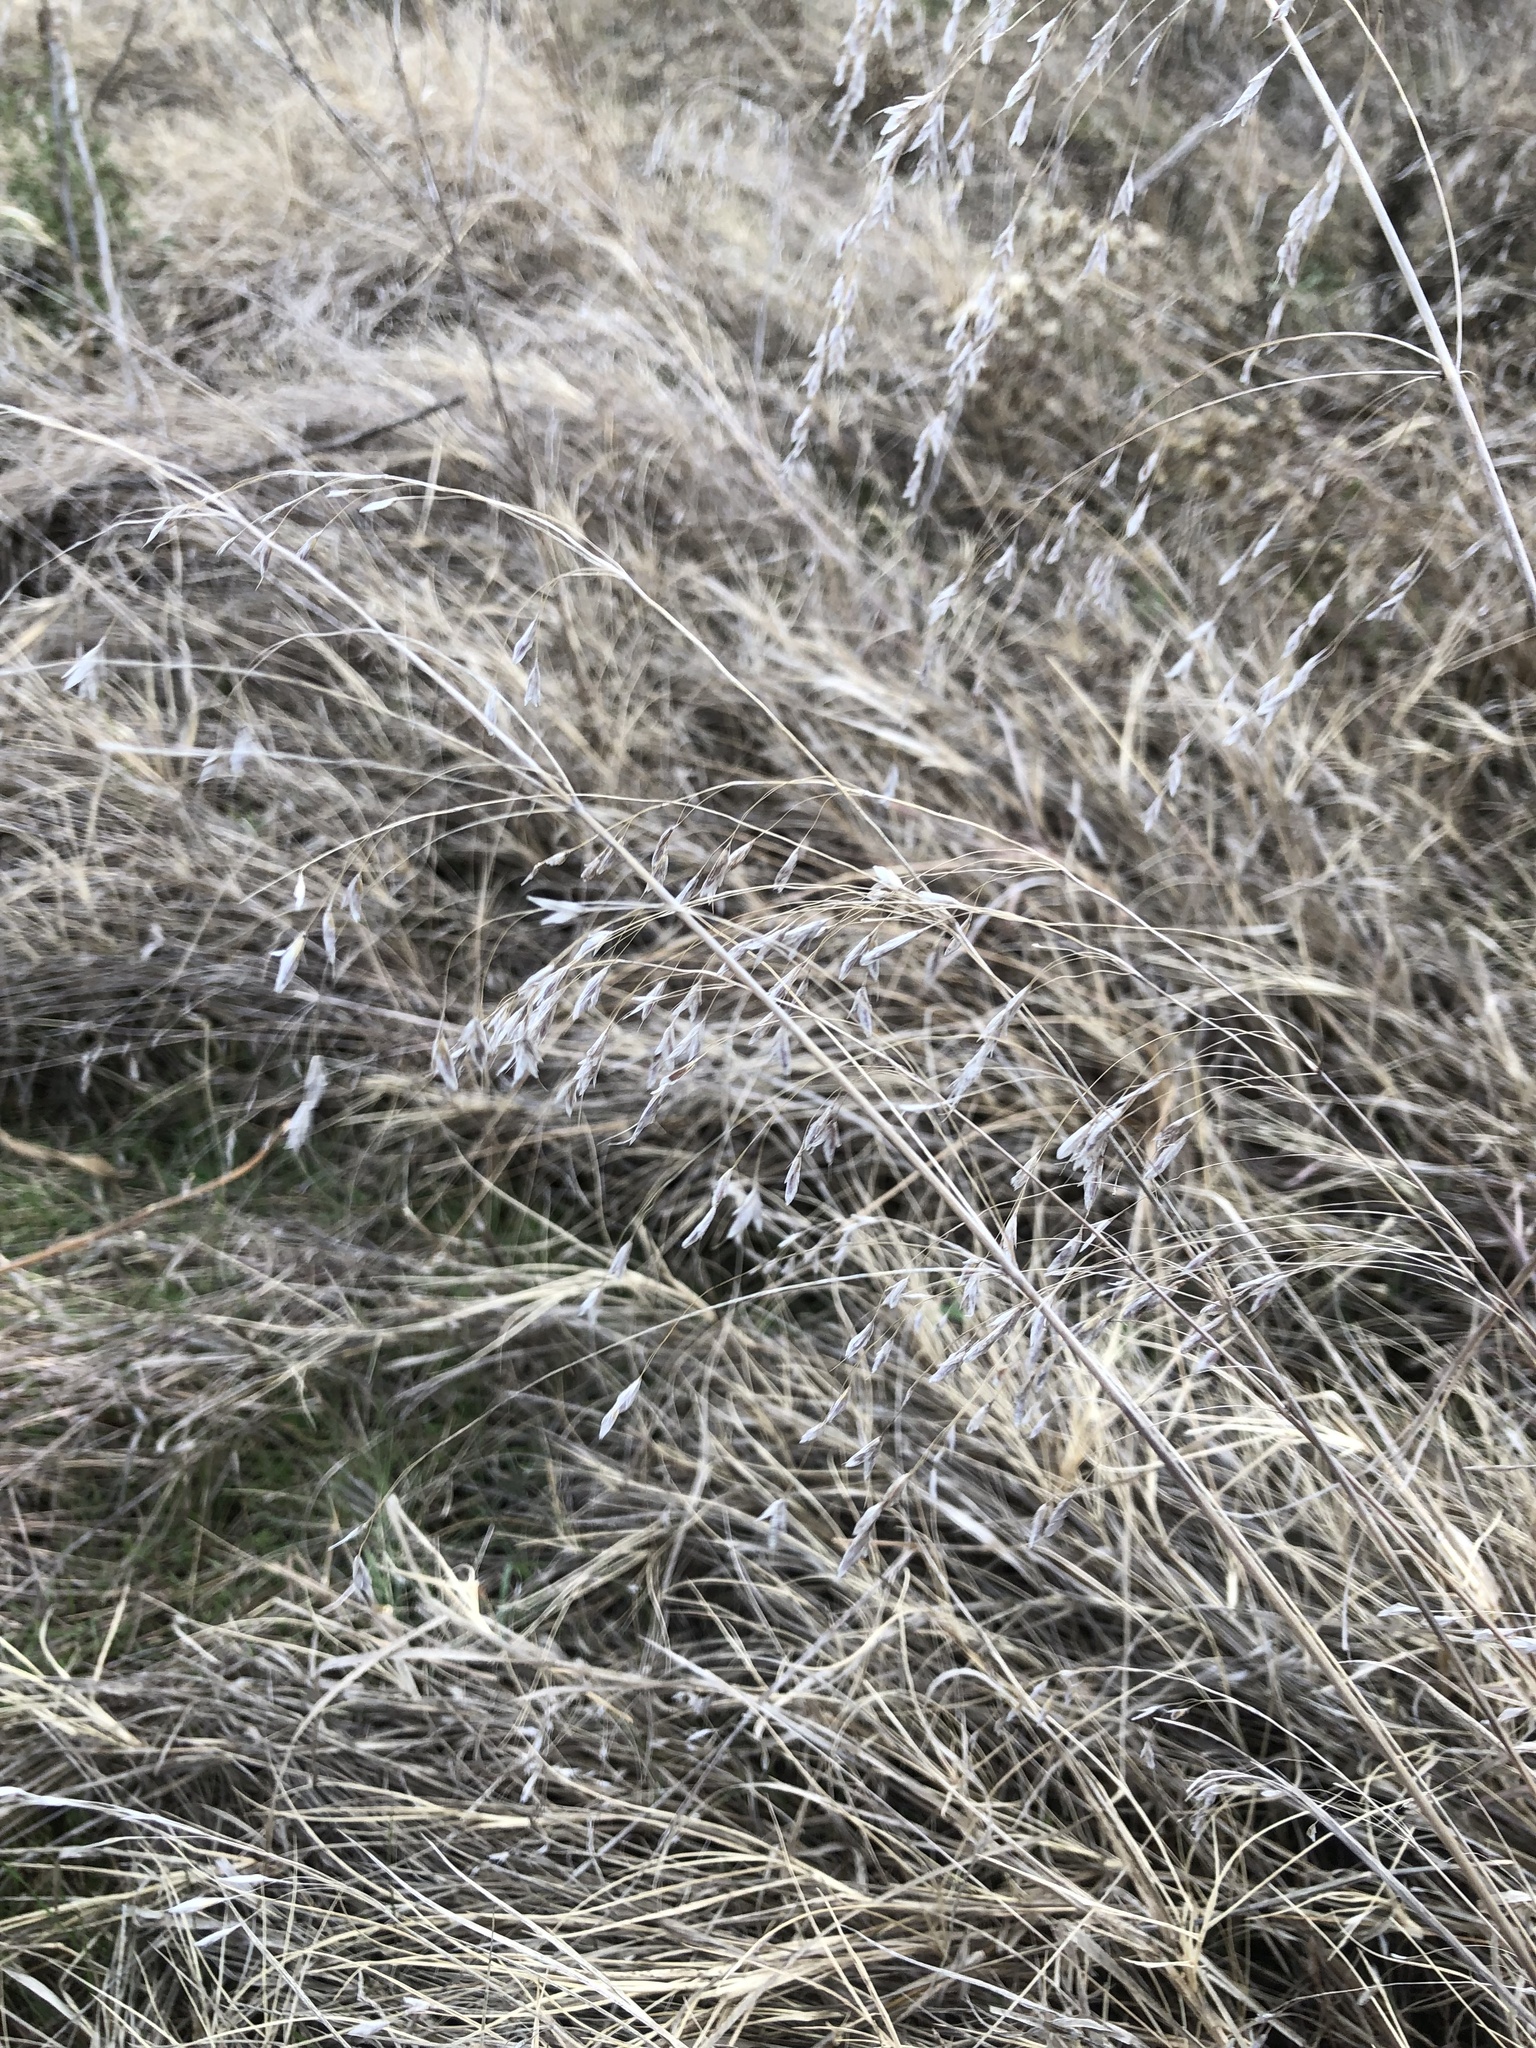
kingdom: Plantae
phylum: Tracheophyta
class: Liliopsida
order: Poales
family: Poaceae
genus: Bromus
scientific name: Bromus japonicus
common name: Japanese brome
